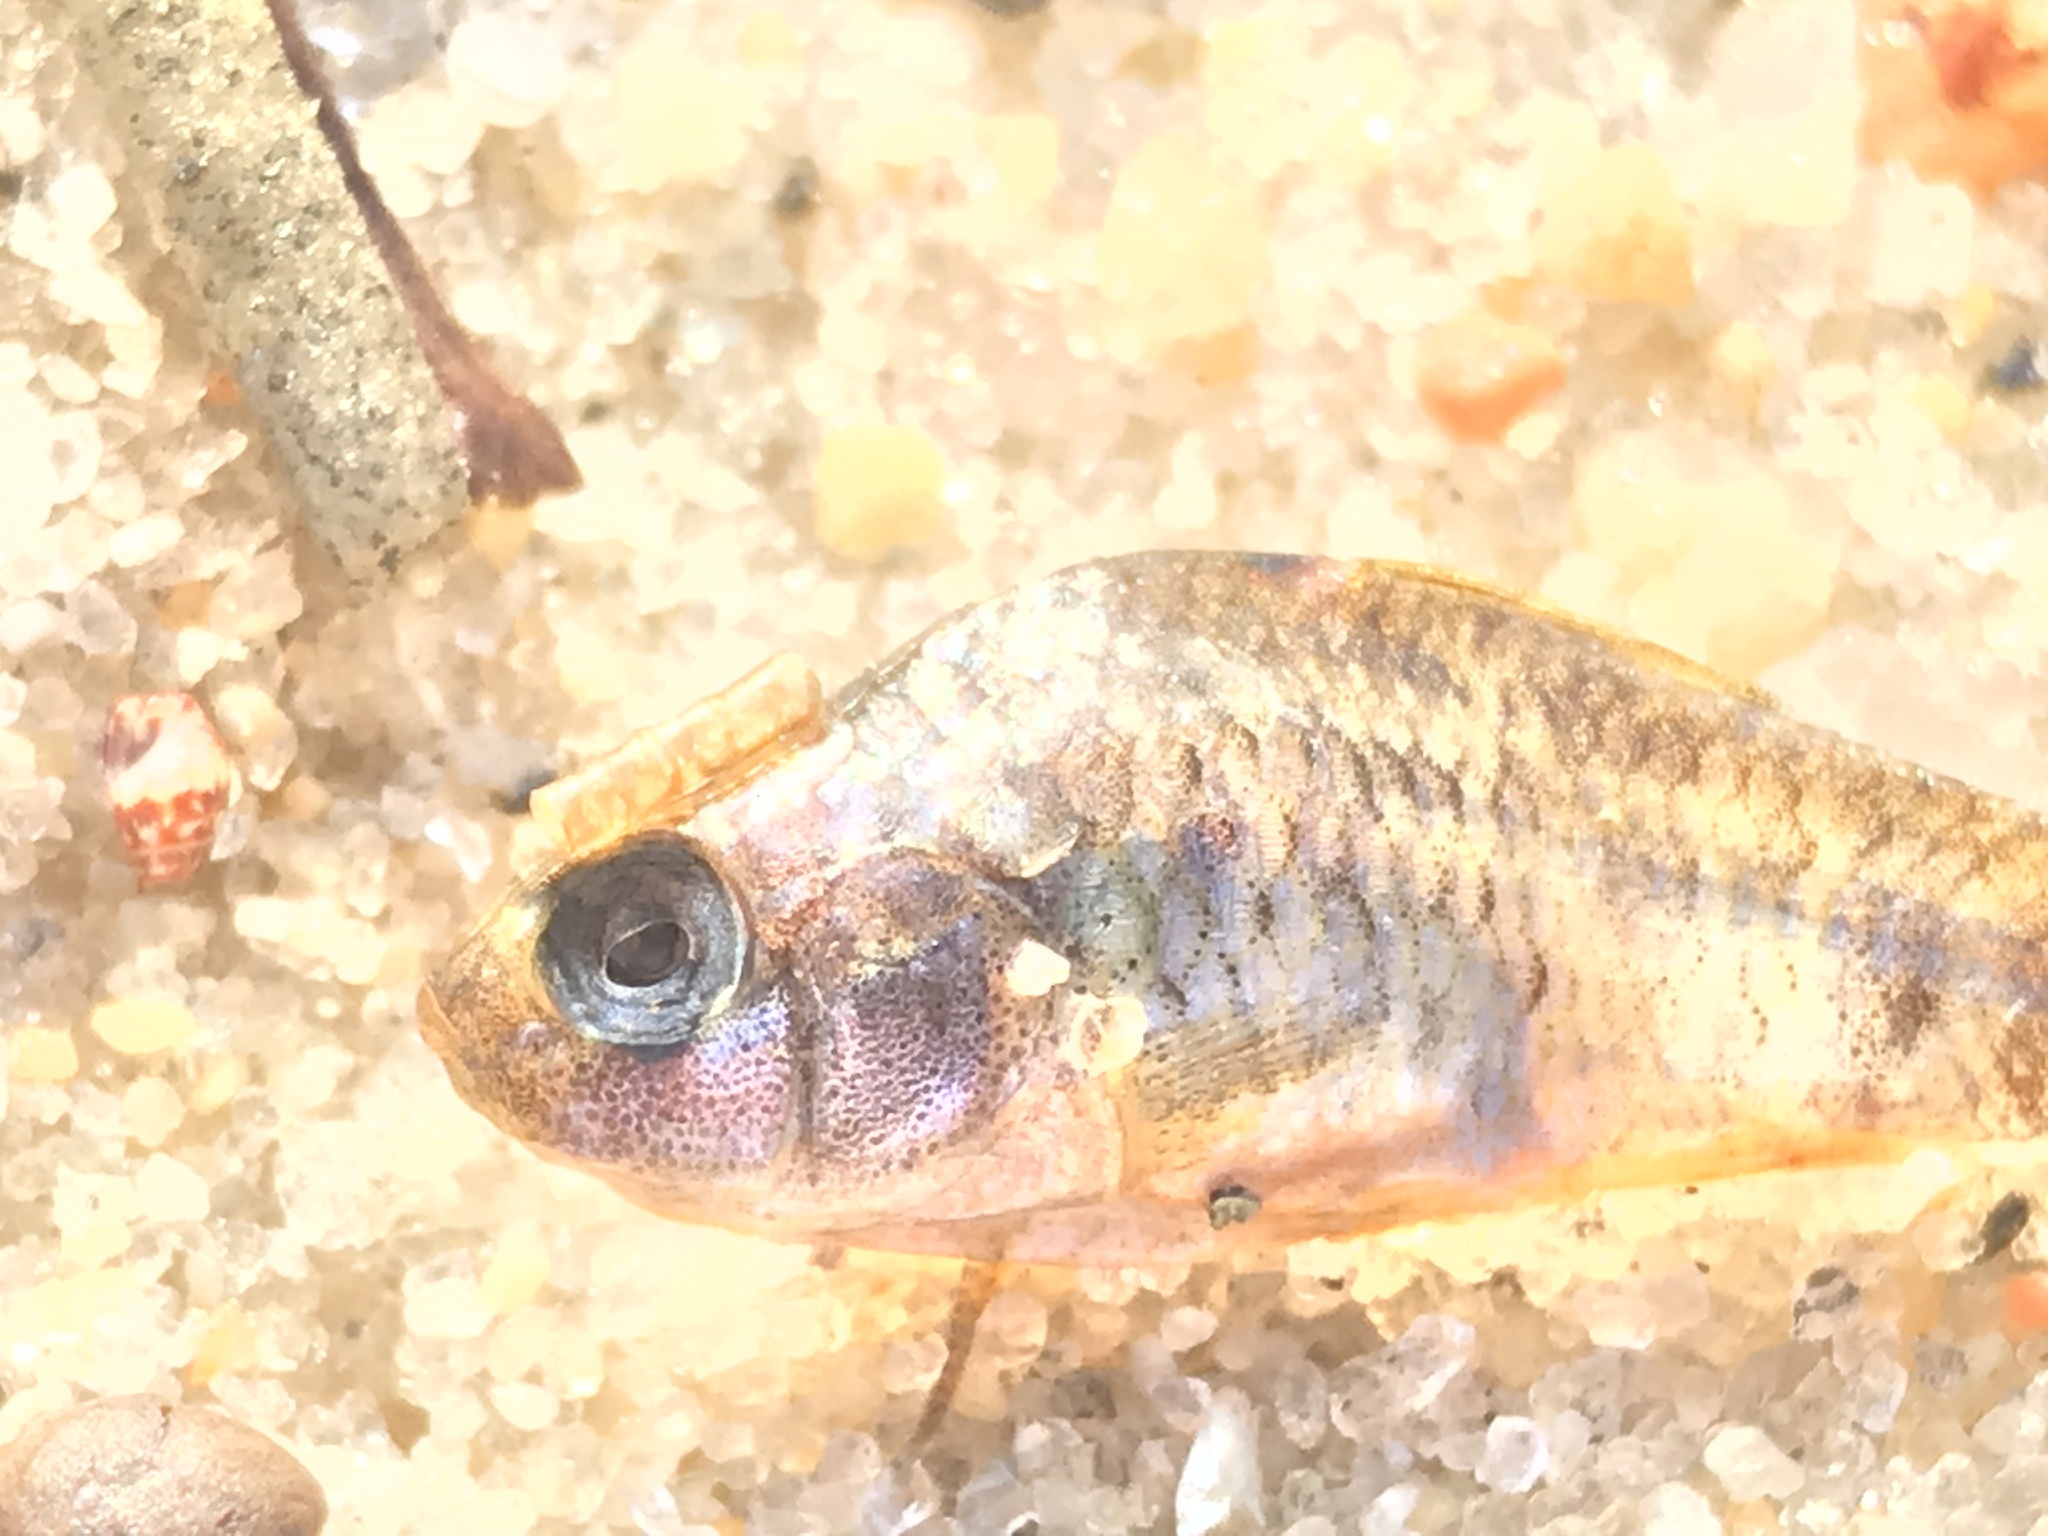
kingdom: Animalia
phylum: Chordata
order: Cyprinodontiformes
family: Cyprinodontidae
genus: Cyprinodon
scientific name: Cyprinodon variegatus
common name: Sheepshead minnow
